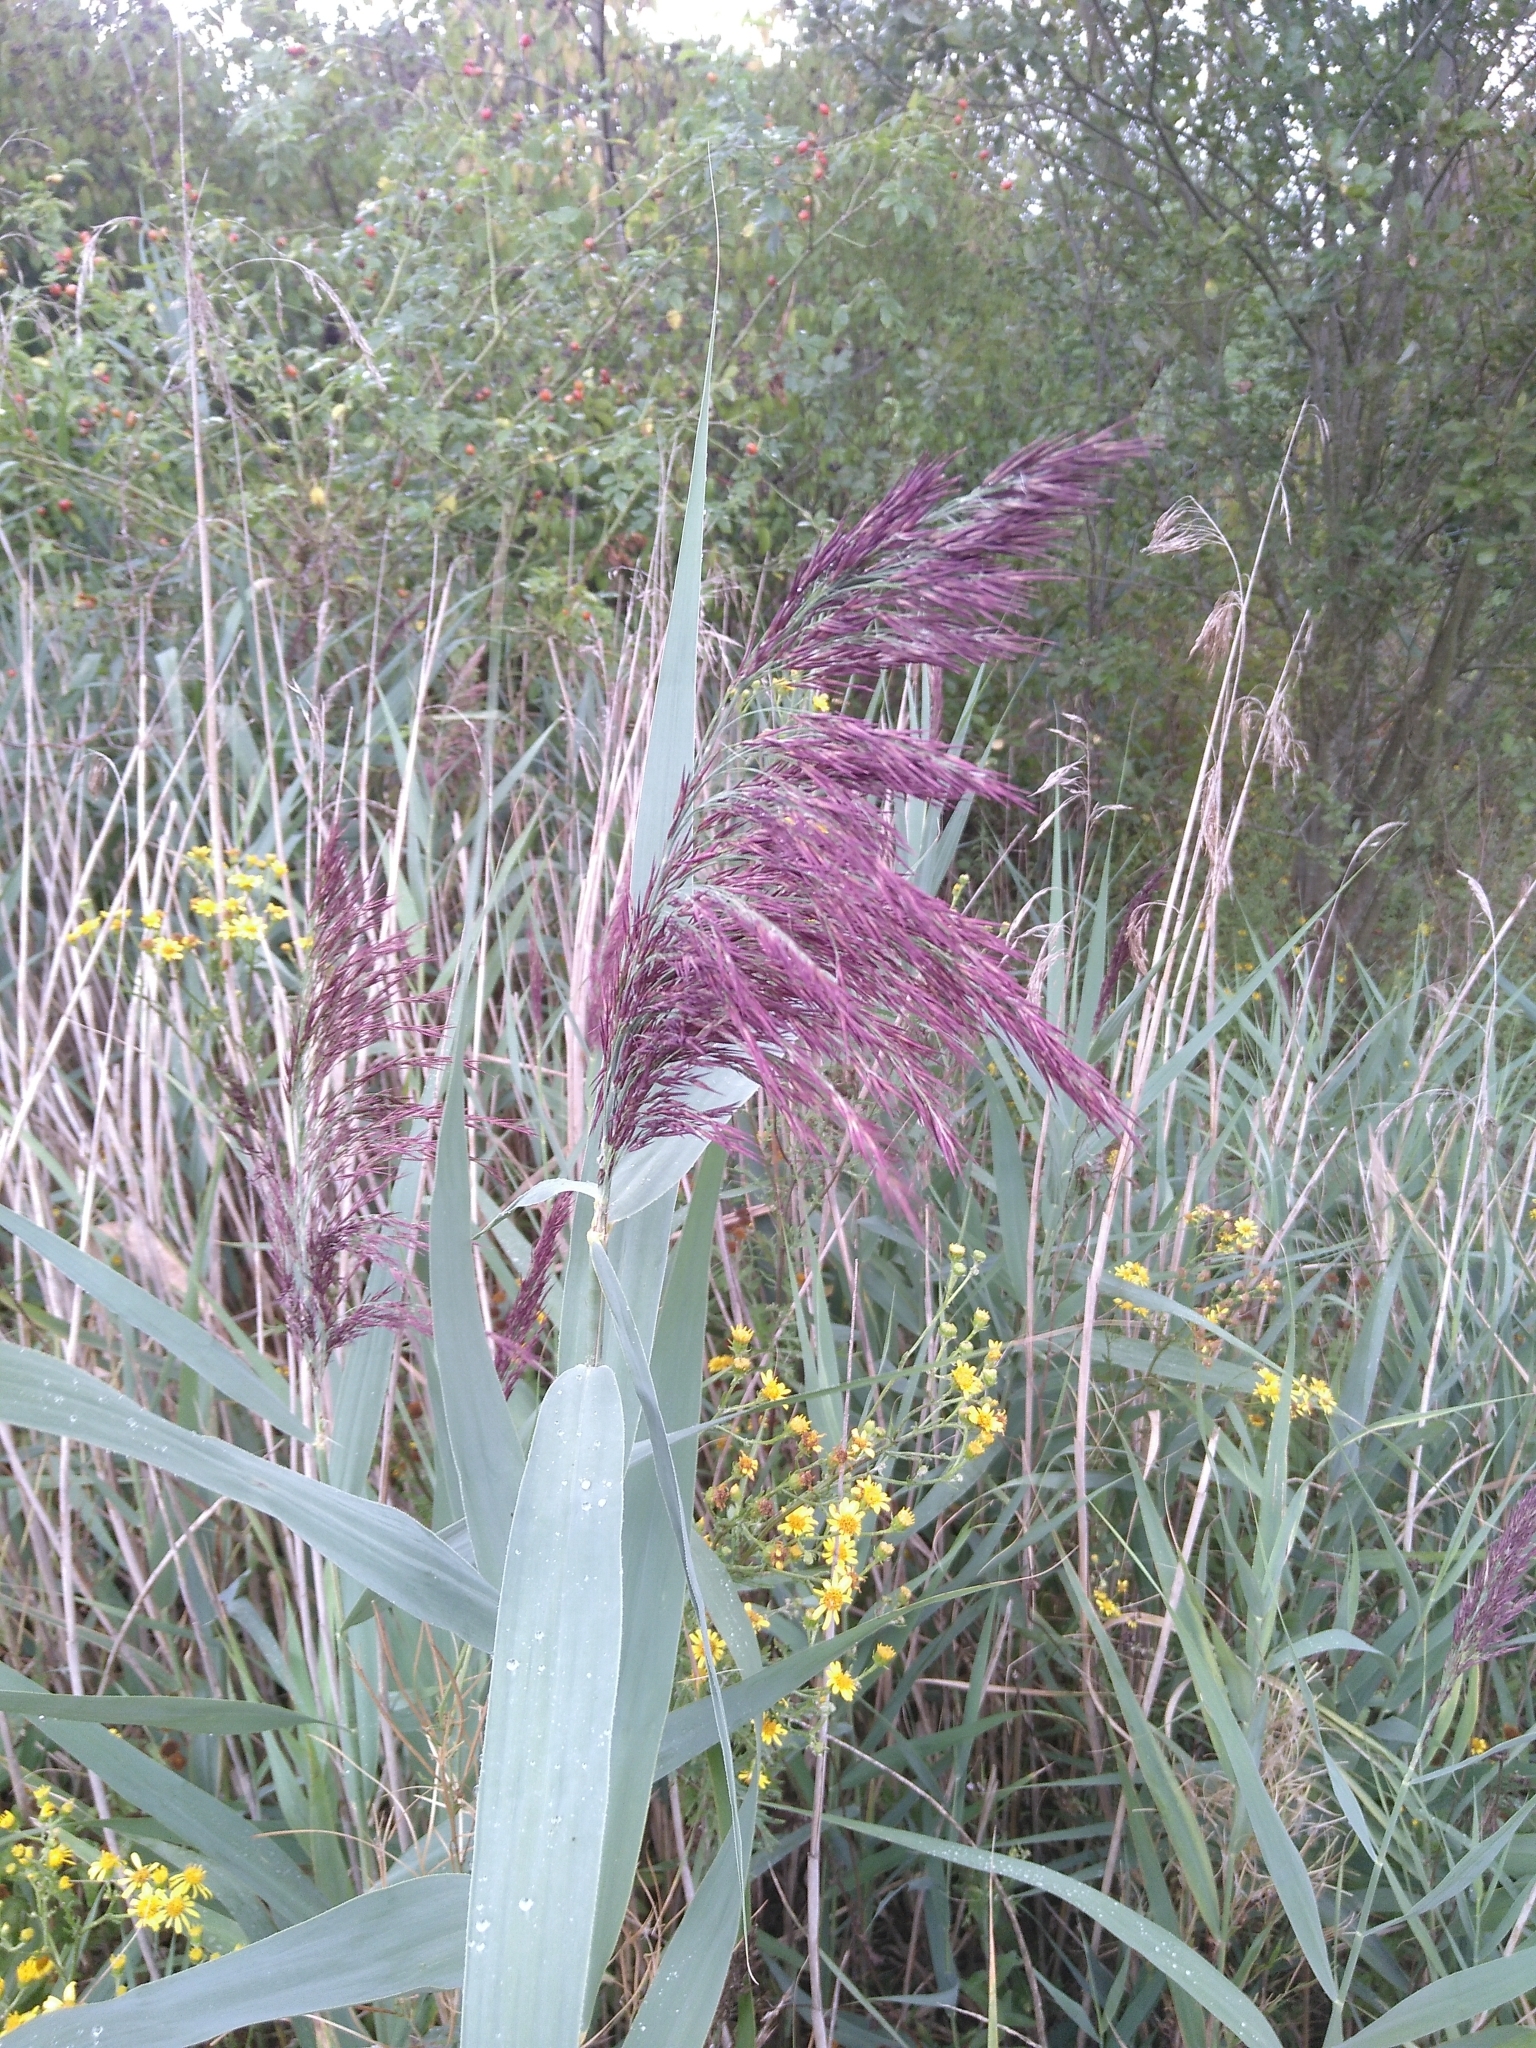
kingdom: Plantae
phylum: Tracheophyta
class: Liliopsida
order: Poales
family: Poaceae
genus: Phragmites
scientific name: Phragmites australis
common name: Common reed
